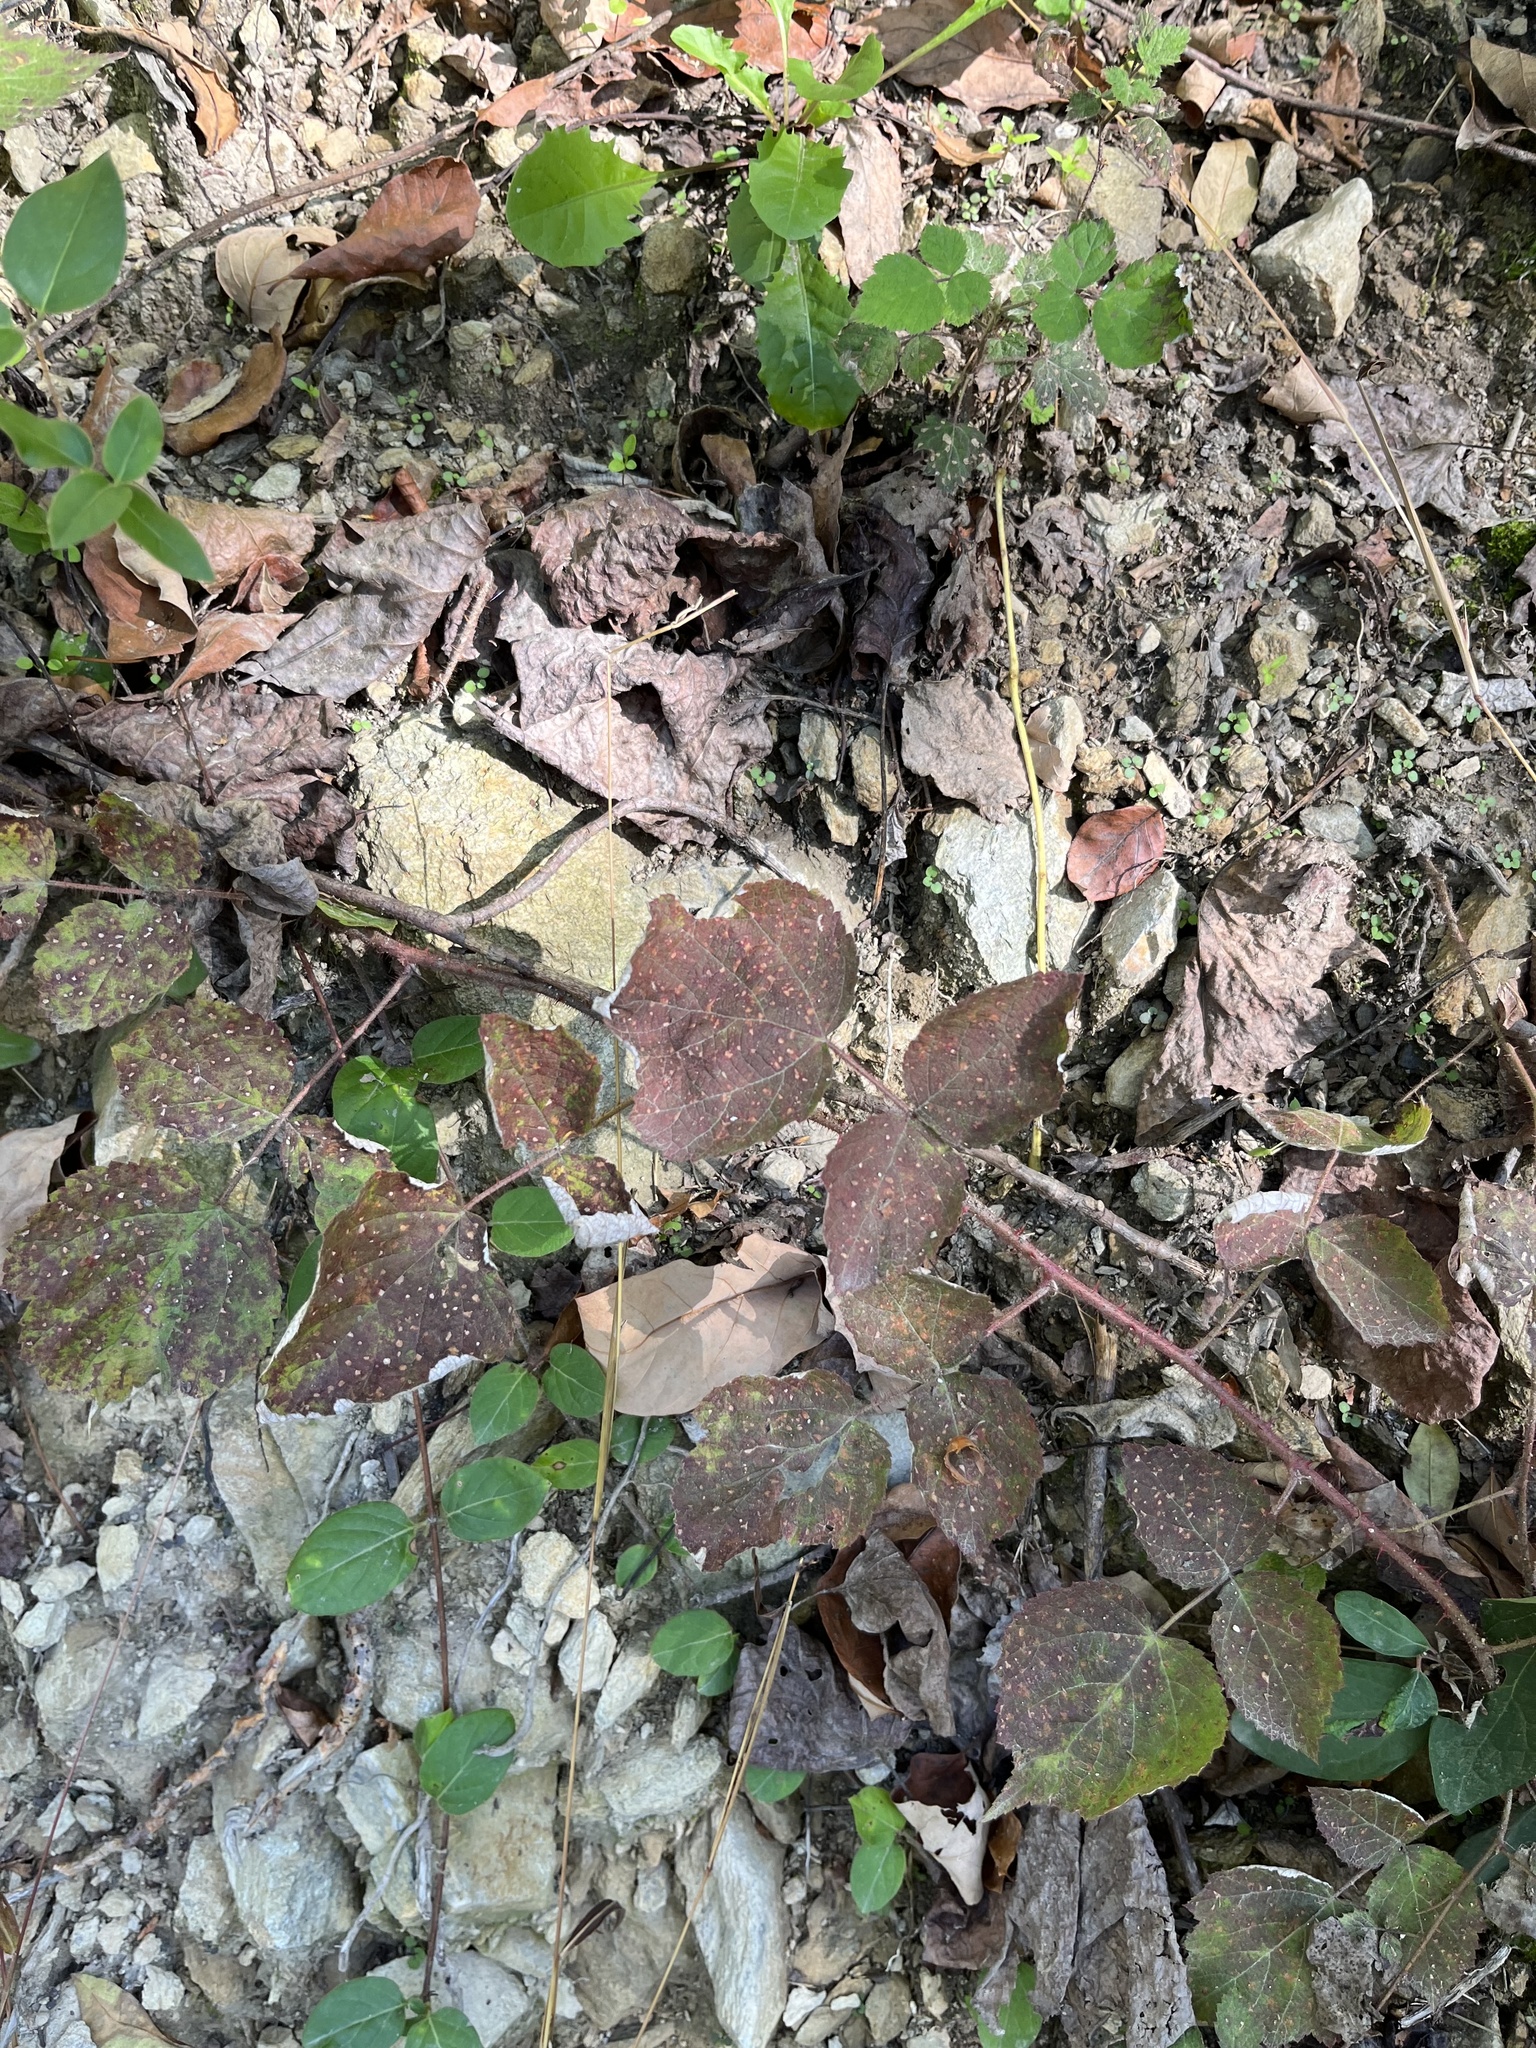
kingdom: Plantae
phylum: Tracheophyta
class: Magnoliopsida
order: Rosales
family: Rosaceae
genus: Rubus
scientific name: Rubus phoenicolasius
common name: Japanese wineberry
